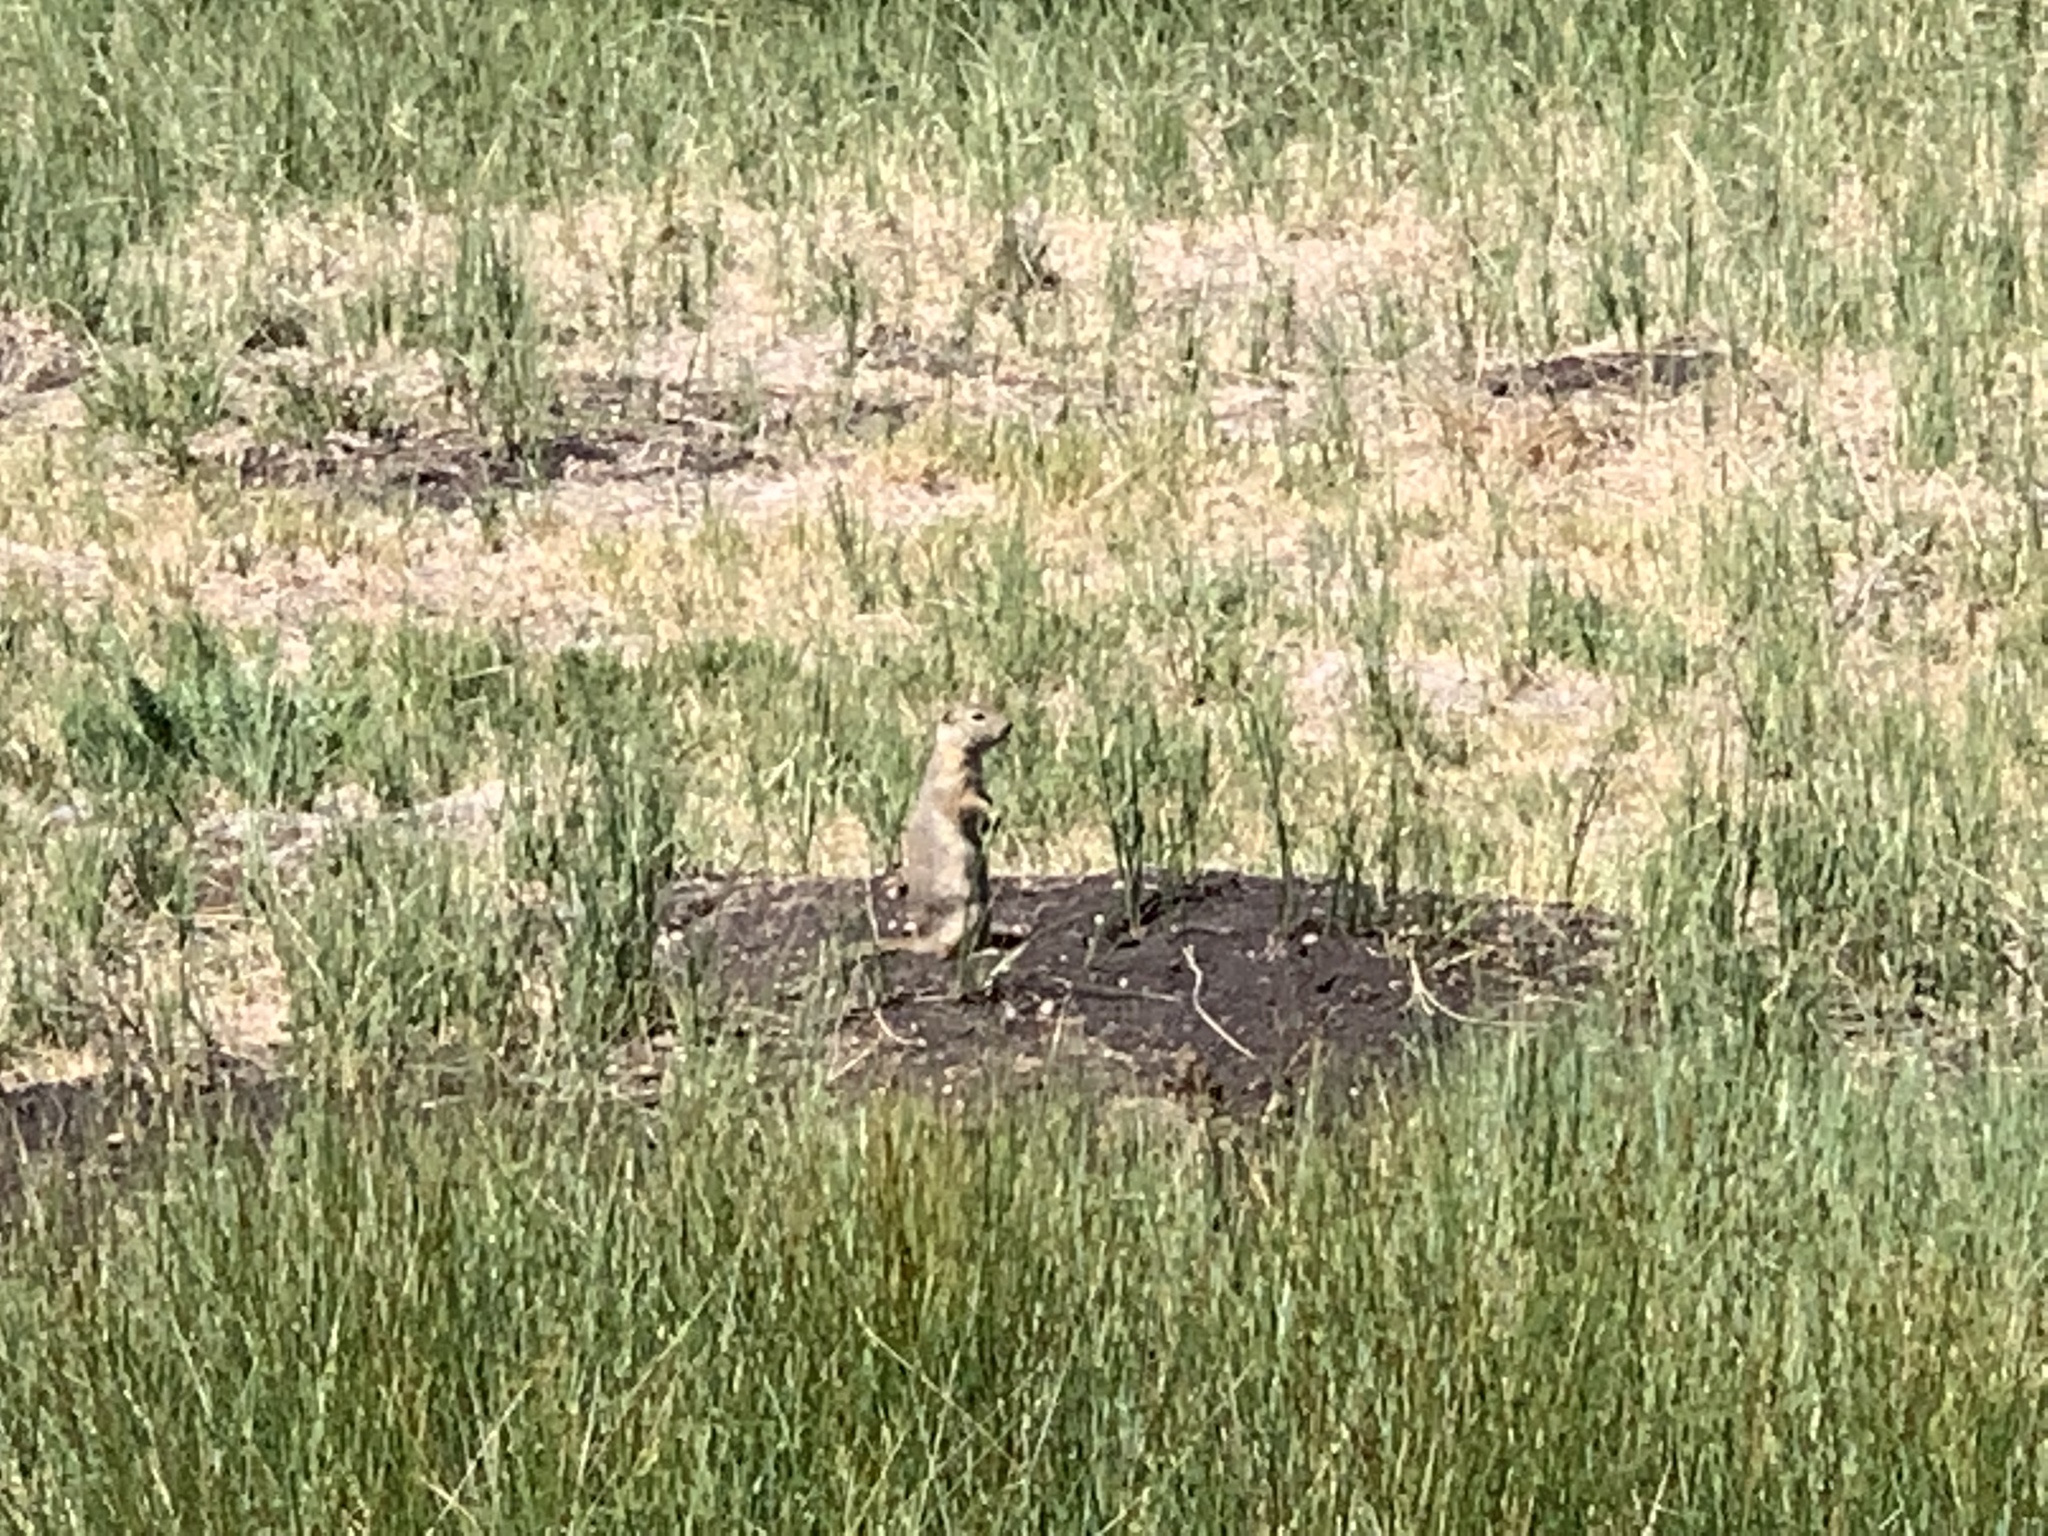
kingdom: Animalia
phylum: Chordata
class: Mammalia
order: Rodentia
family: Sciuridae
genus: Urocitellus
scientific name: Urocitellus elegans
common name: Wyoming ground squirrel
